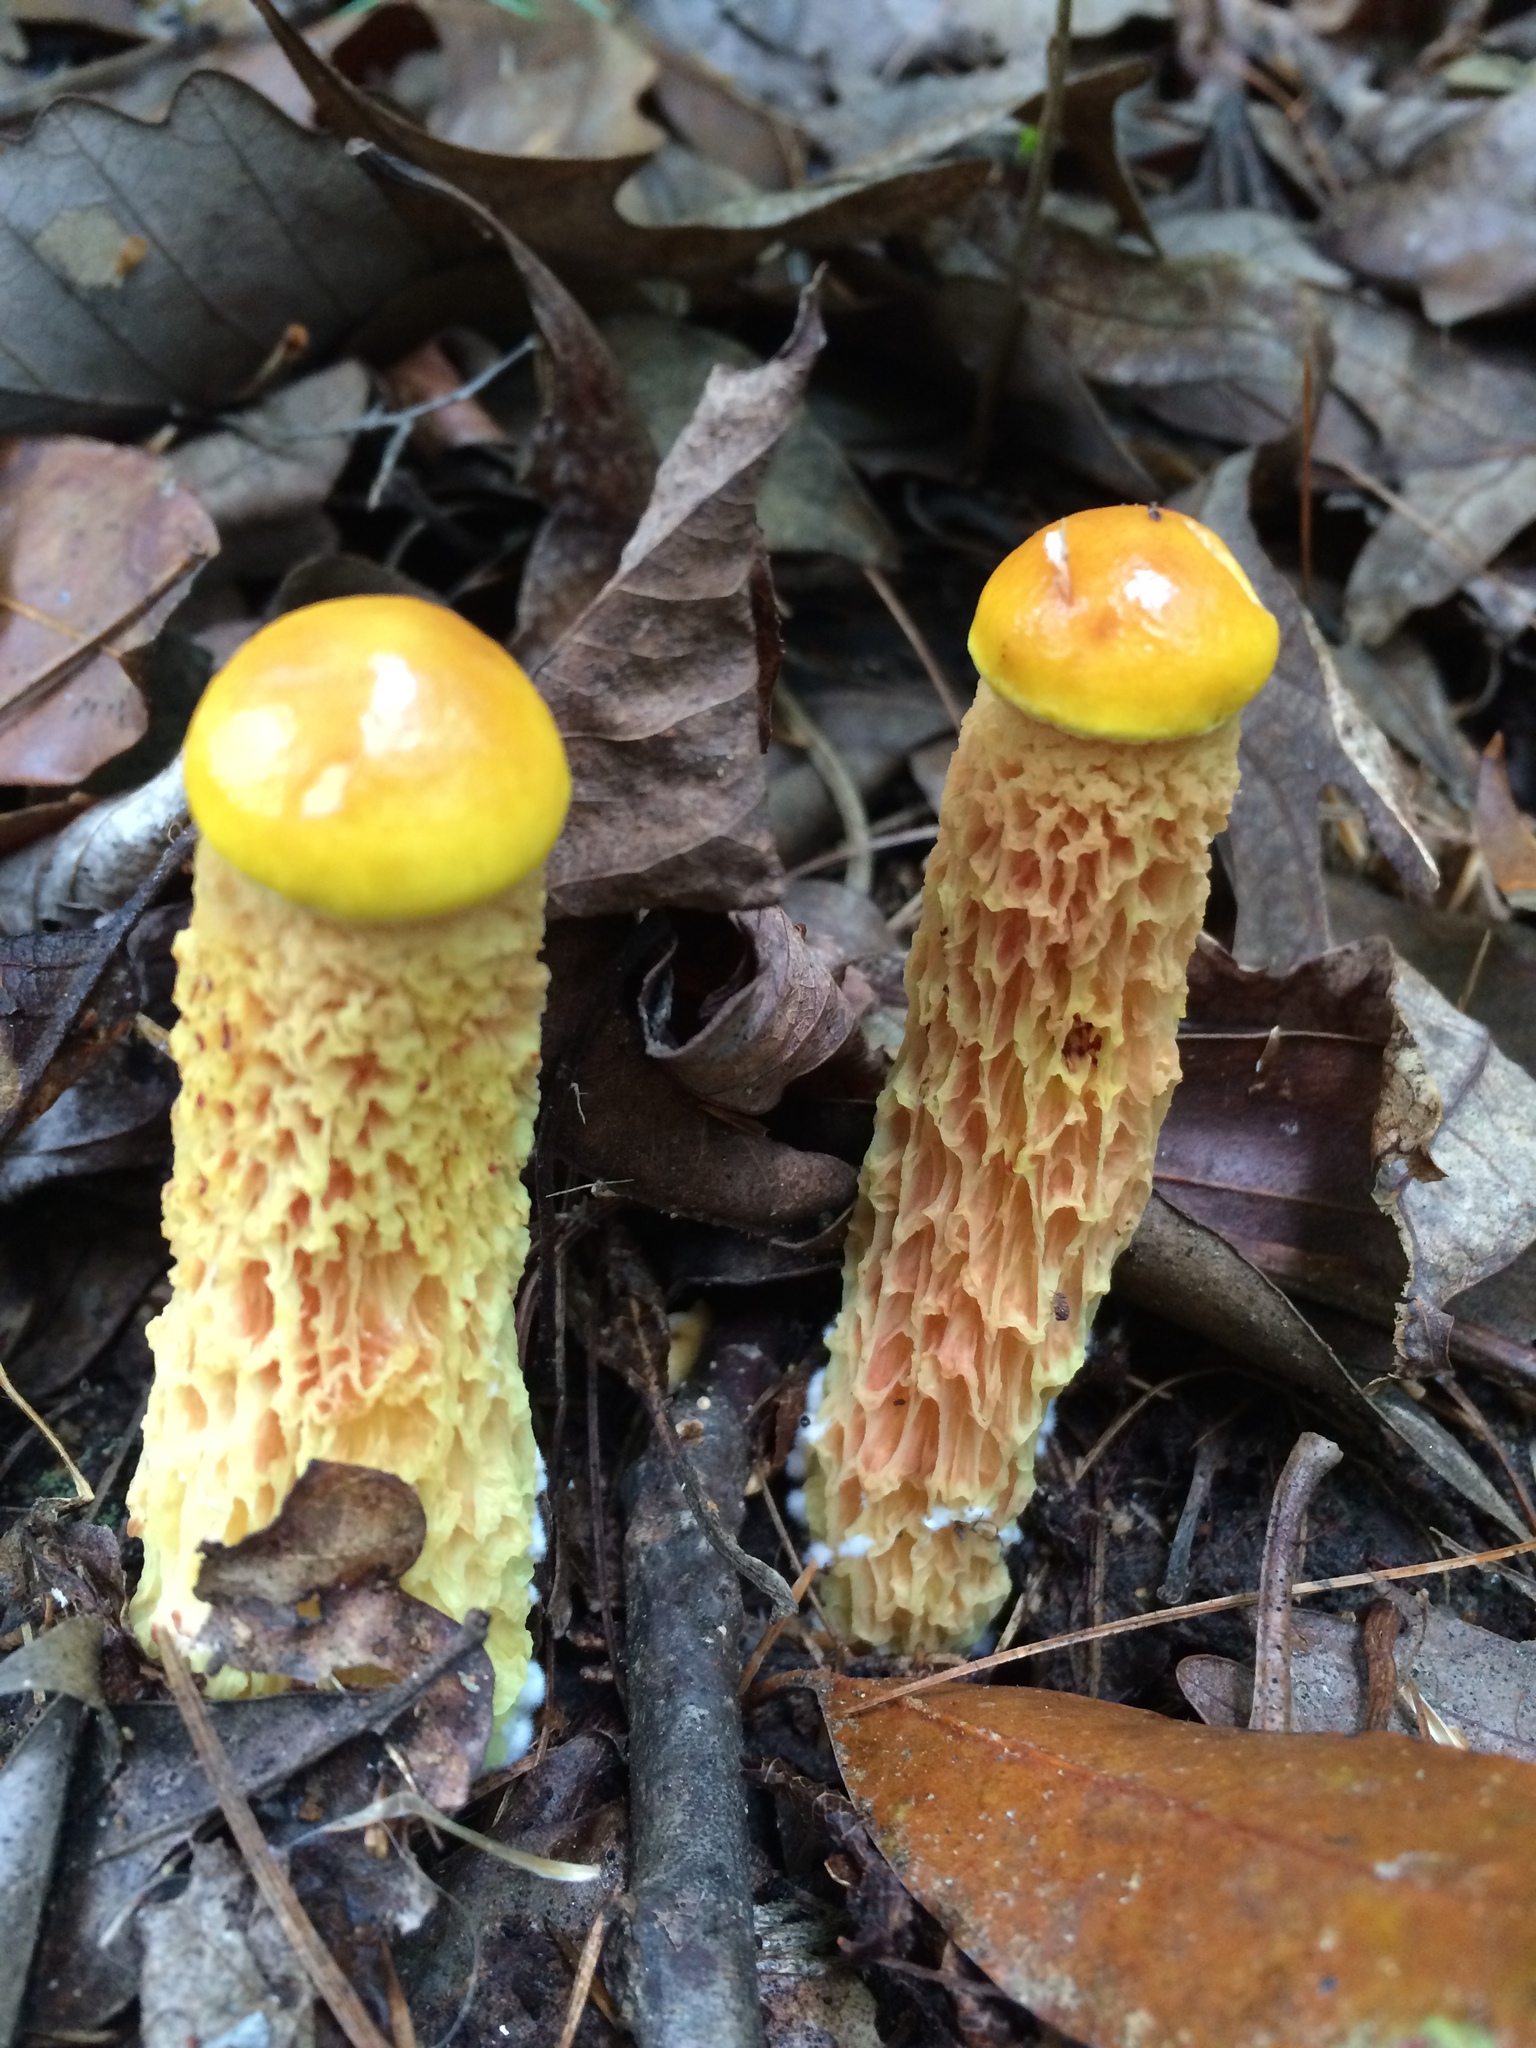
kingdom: Fungi
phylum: Basidiomycota
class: Agaricomycetes
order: Boletales
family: Boletaceae
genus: Aureoboletus
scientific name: Aureoboletus betula
